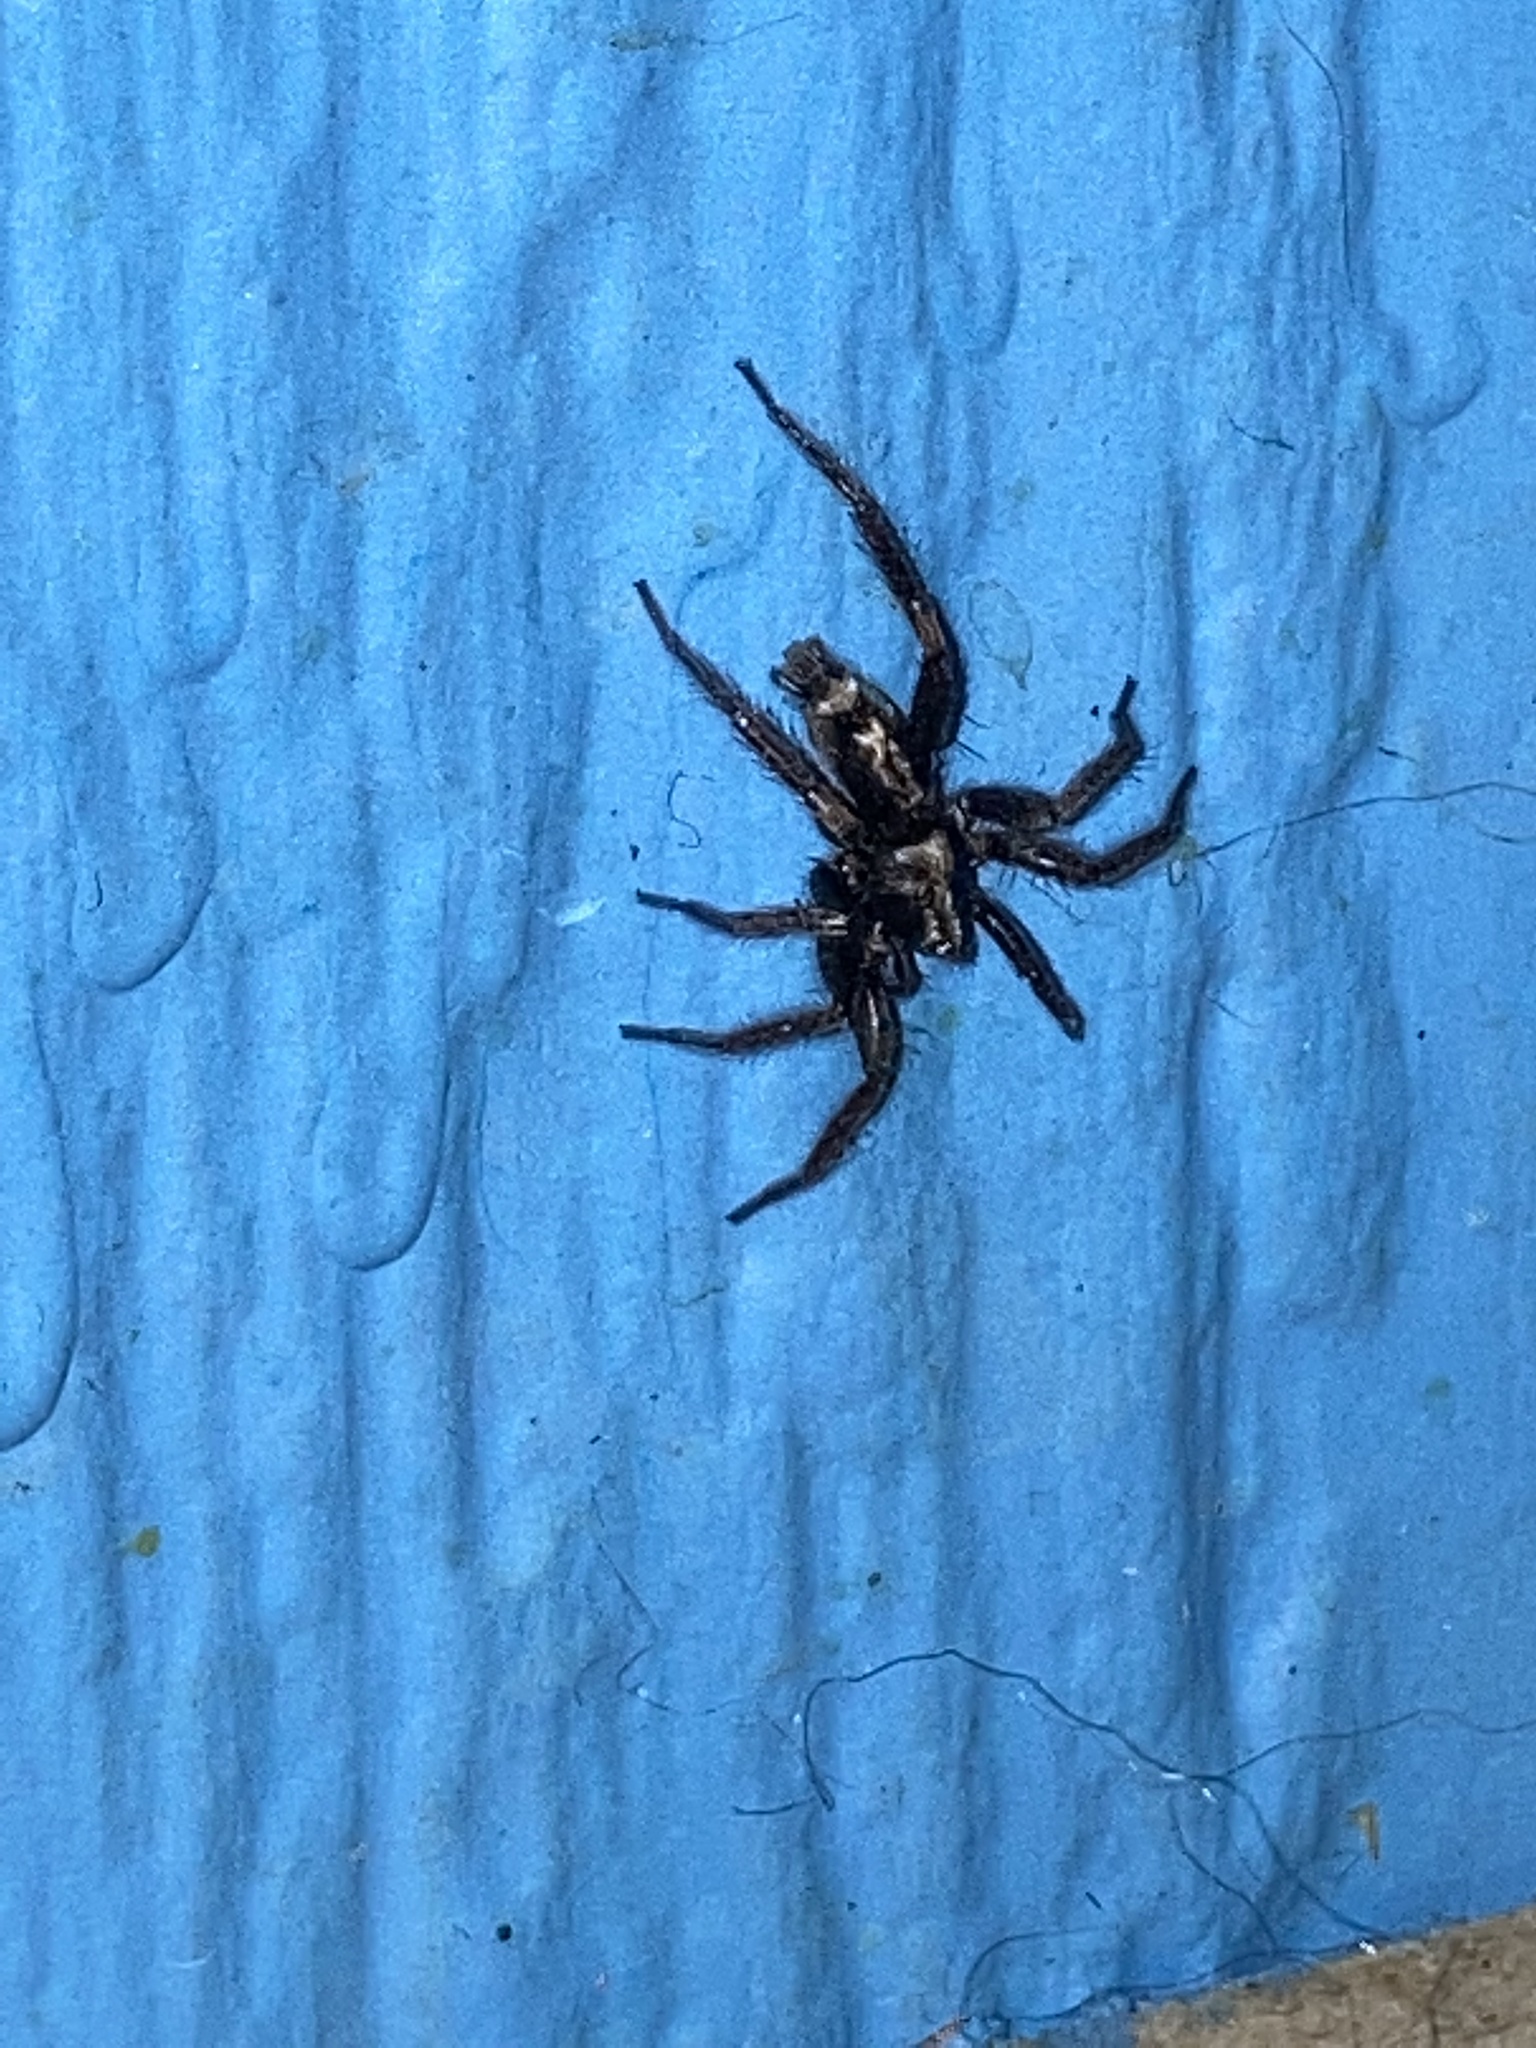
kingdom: Animalia
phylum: Arthropoda
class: Arachnida
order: Araneae
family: Gnaphosidae
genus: Herpyllus
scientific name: Herpyllus ecclesiasticus
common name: Eastern parson spider
